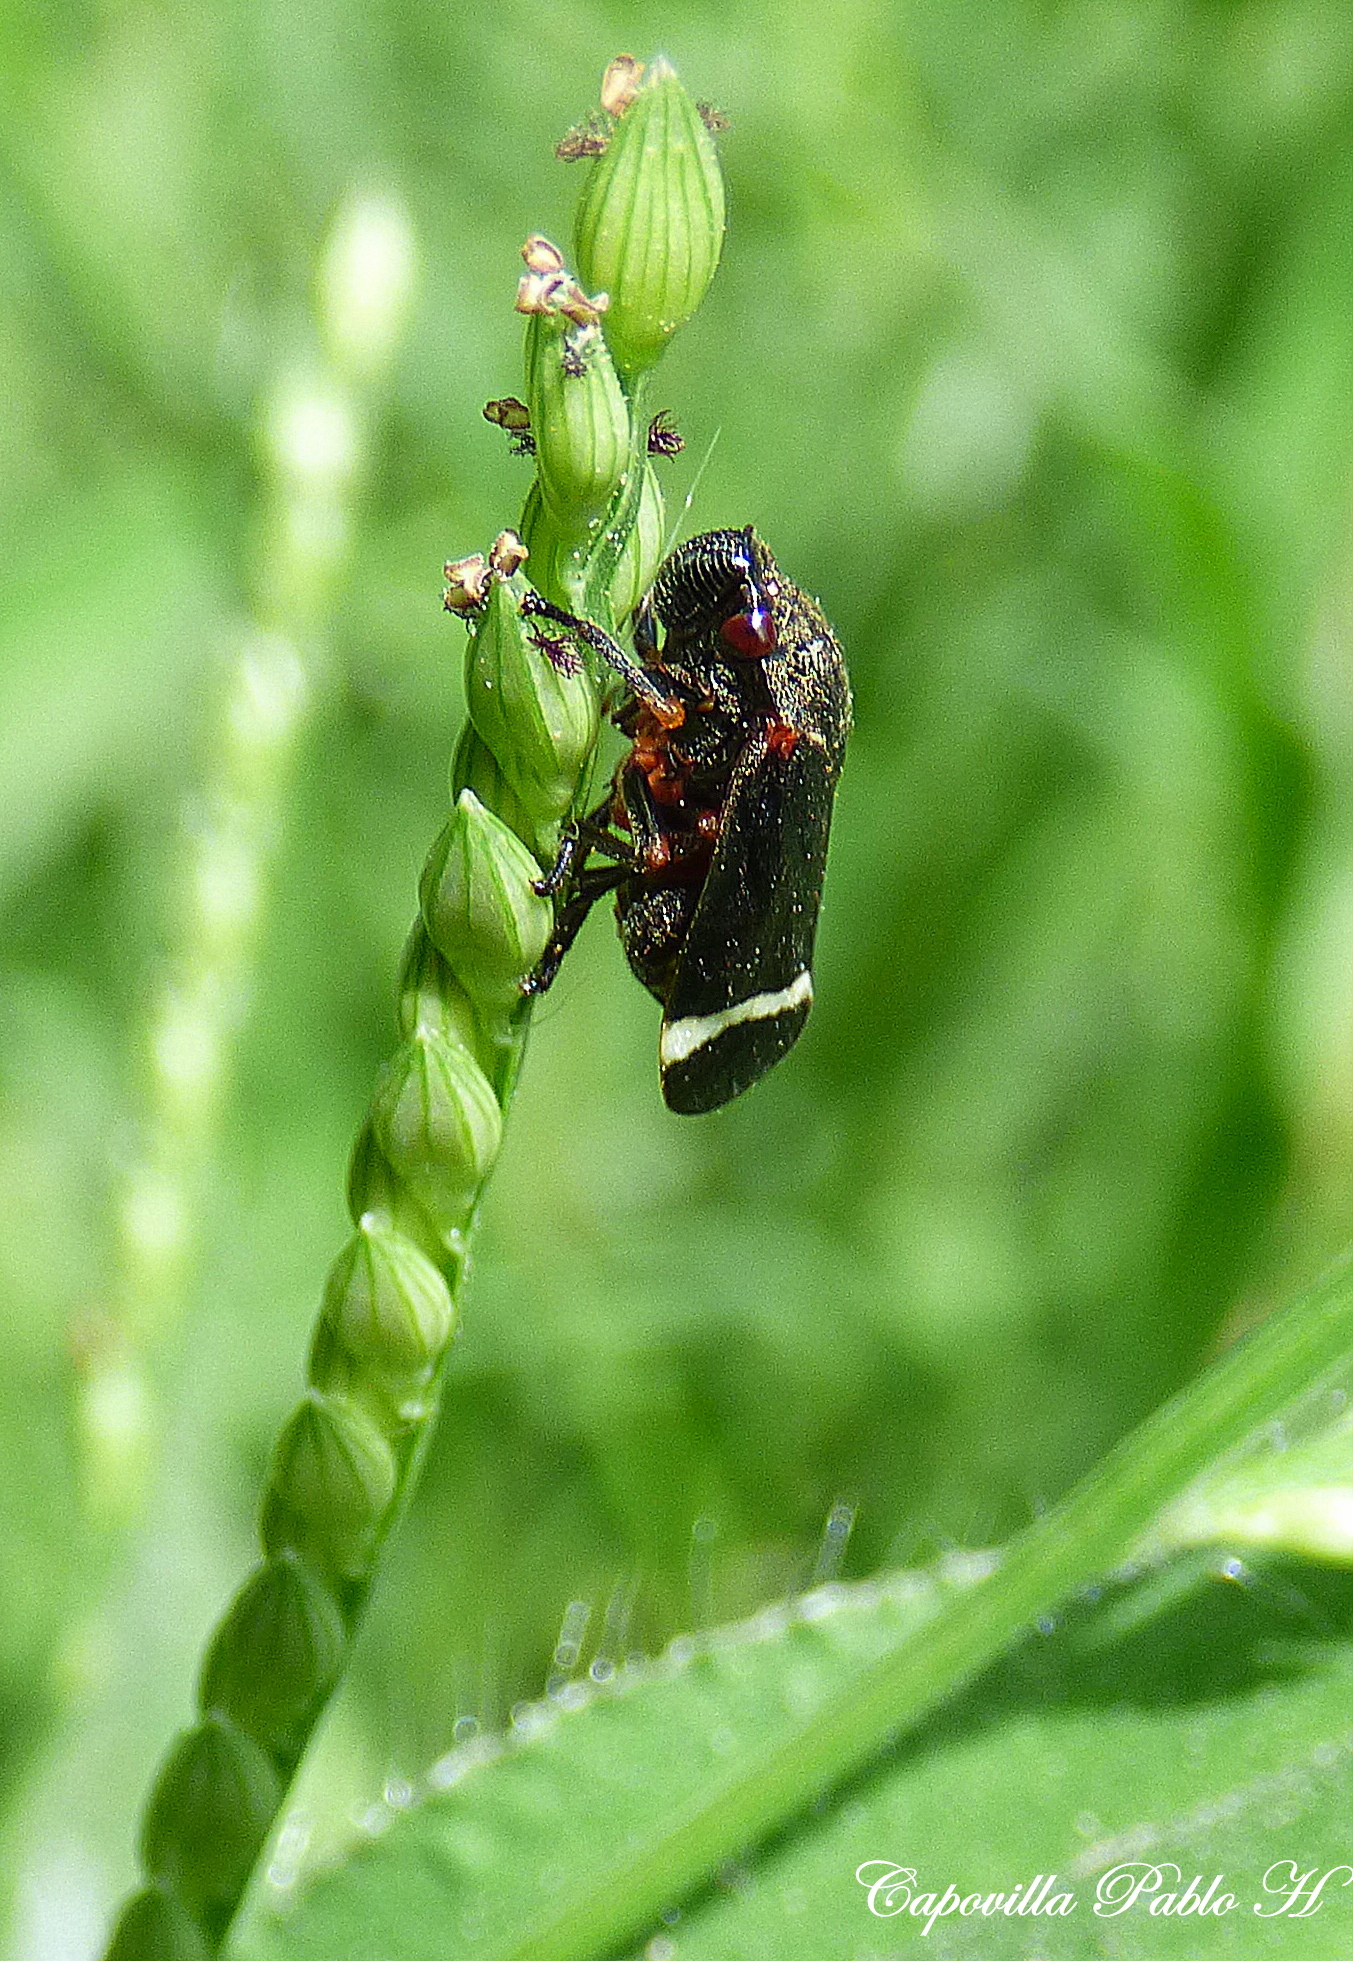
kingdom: Animalia
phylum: Arthropoda
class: Insecta
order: Hemiptera
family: Cercopidae
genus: Notozulia
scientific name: Notozulia entreriana
